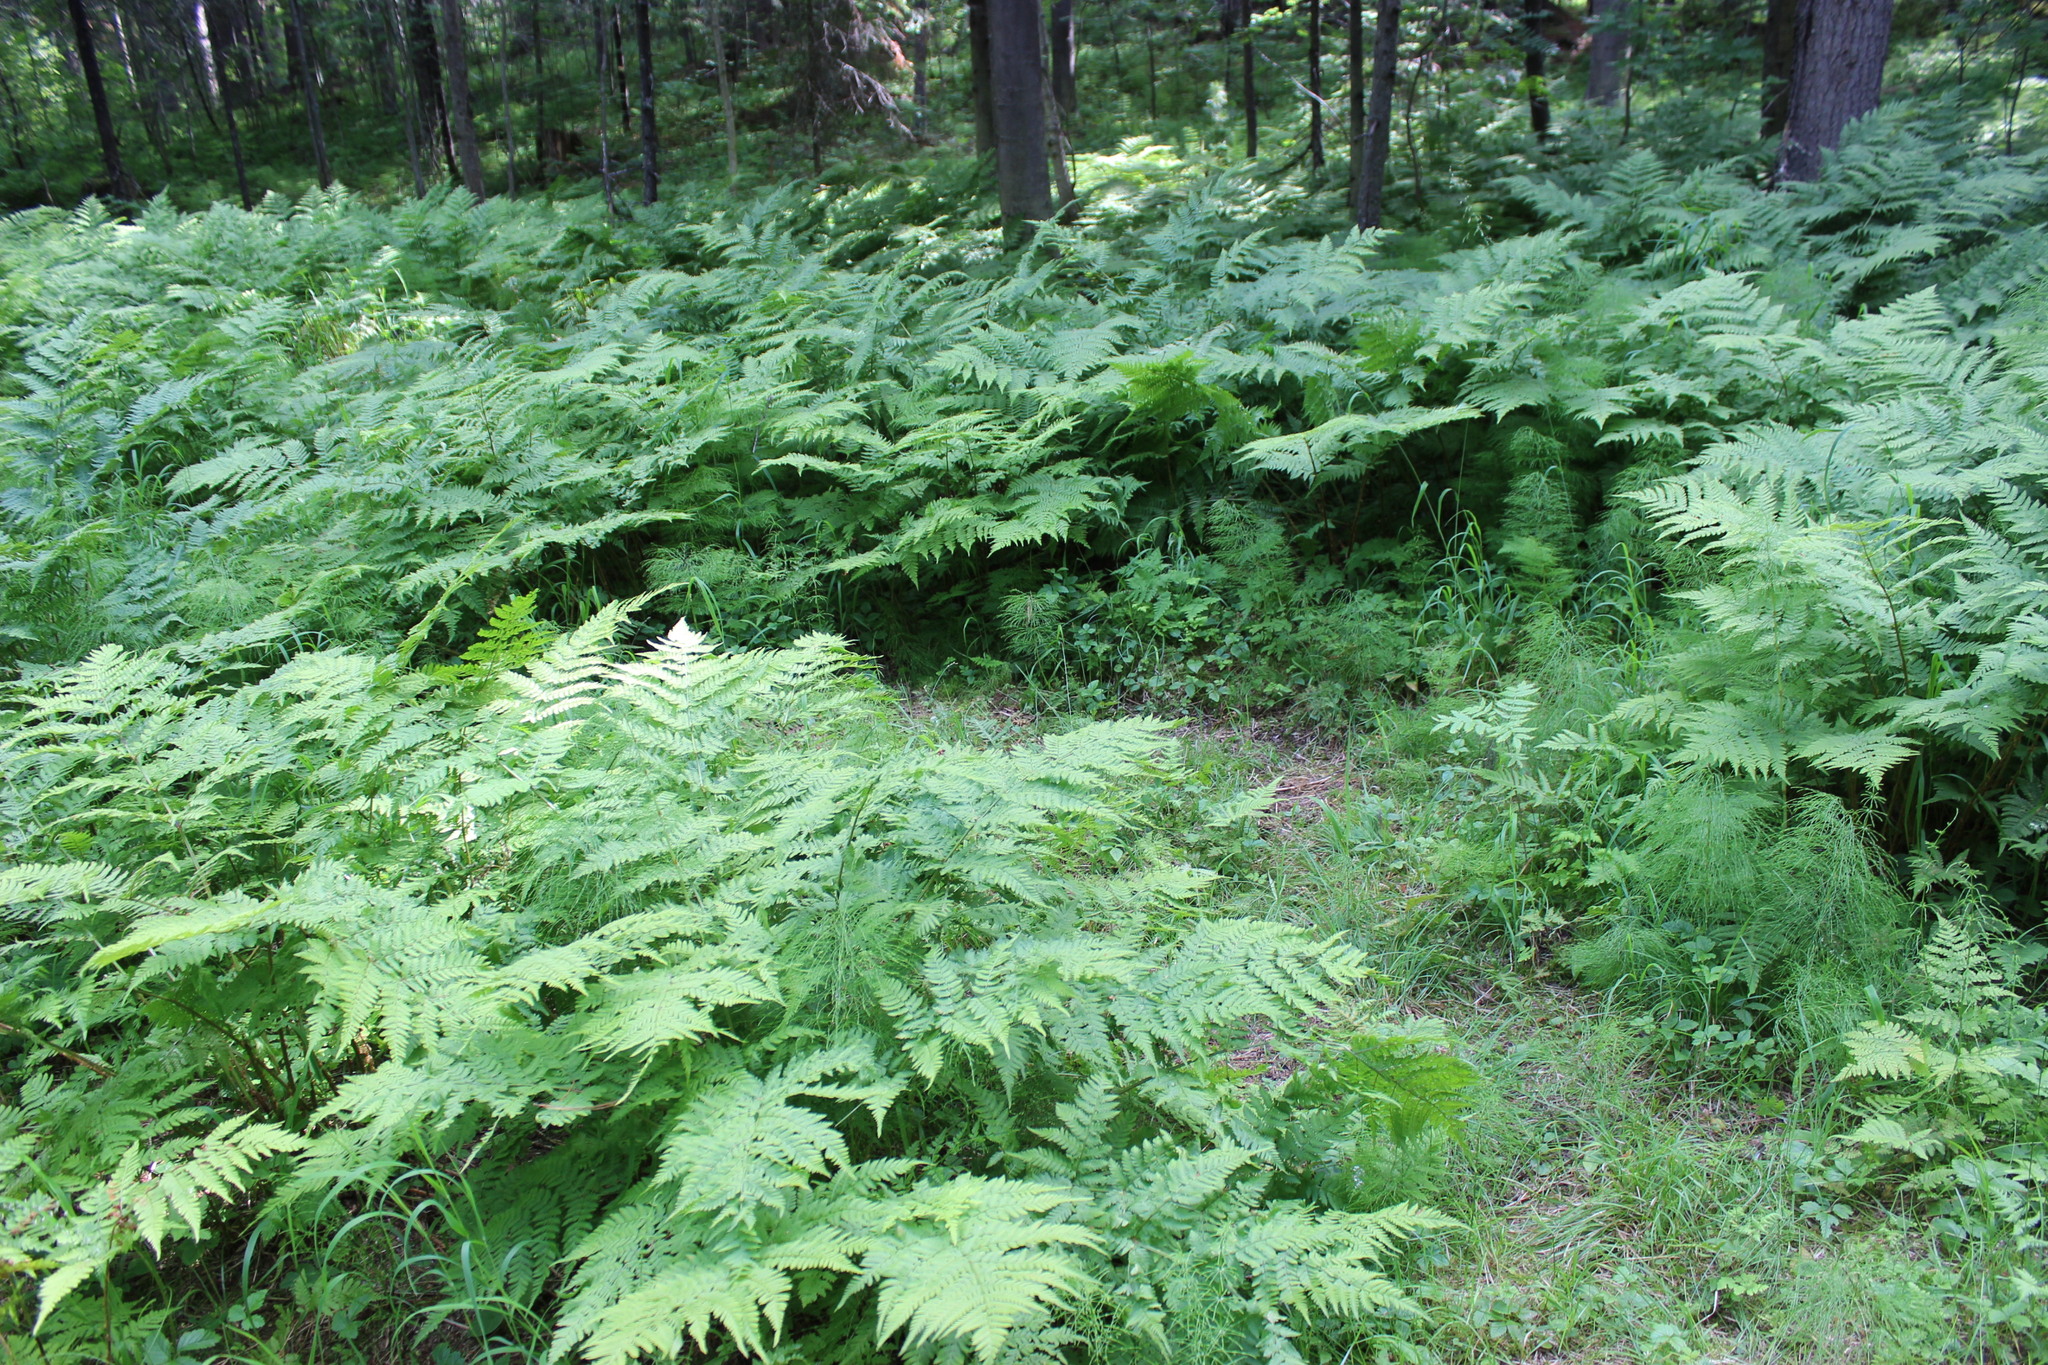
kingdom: Plantae
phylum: Tracheophyta
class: Polypodiopsida
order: Polypodiales
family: Dennstaedtiaceae
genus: Pteridium
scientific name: Pteridium aquilinum
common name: Bracken
